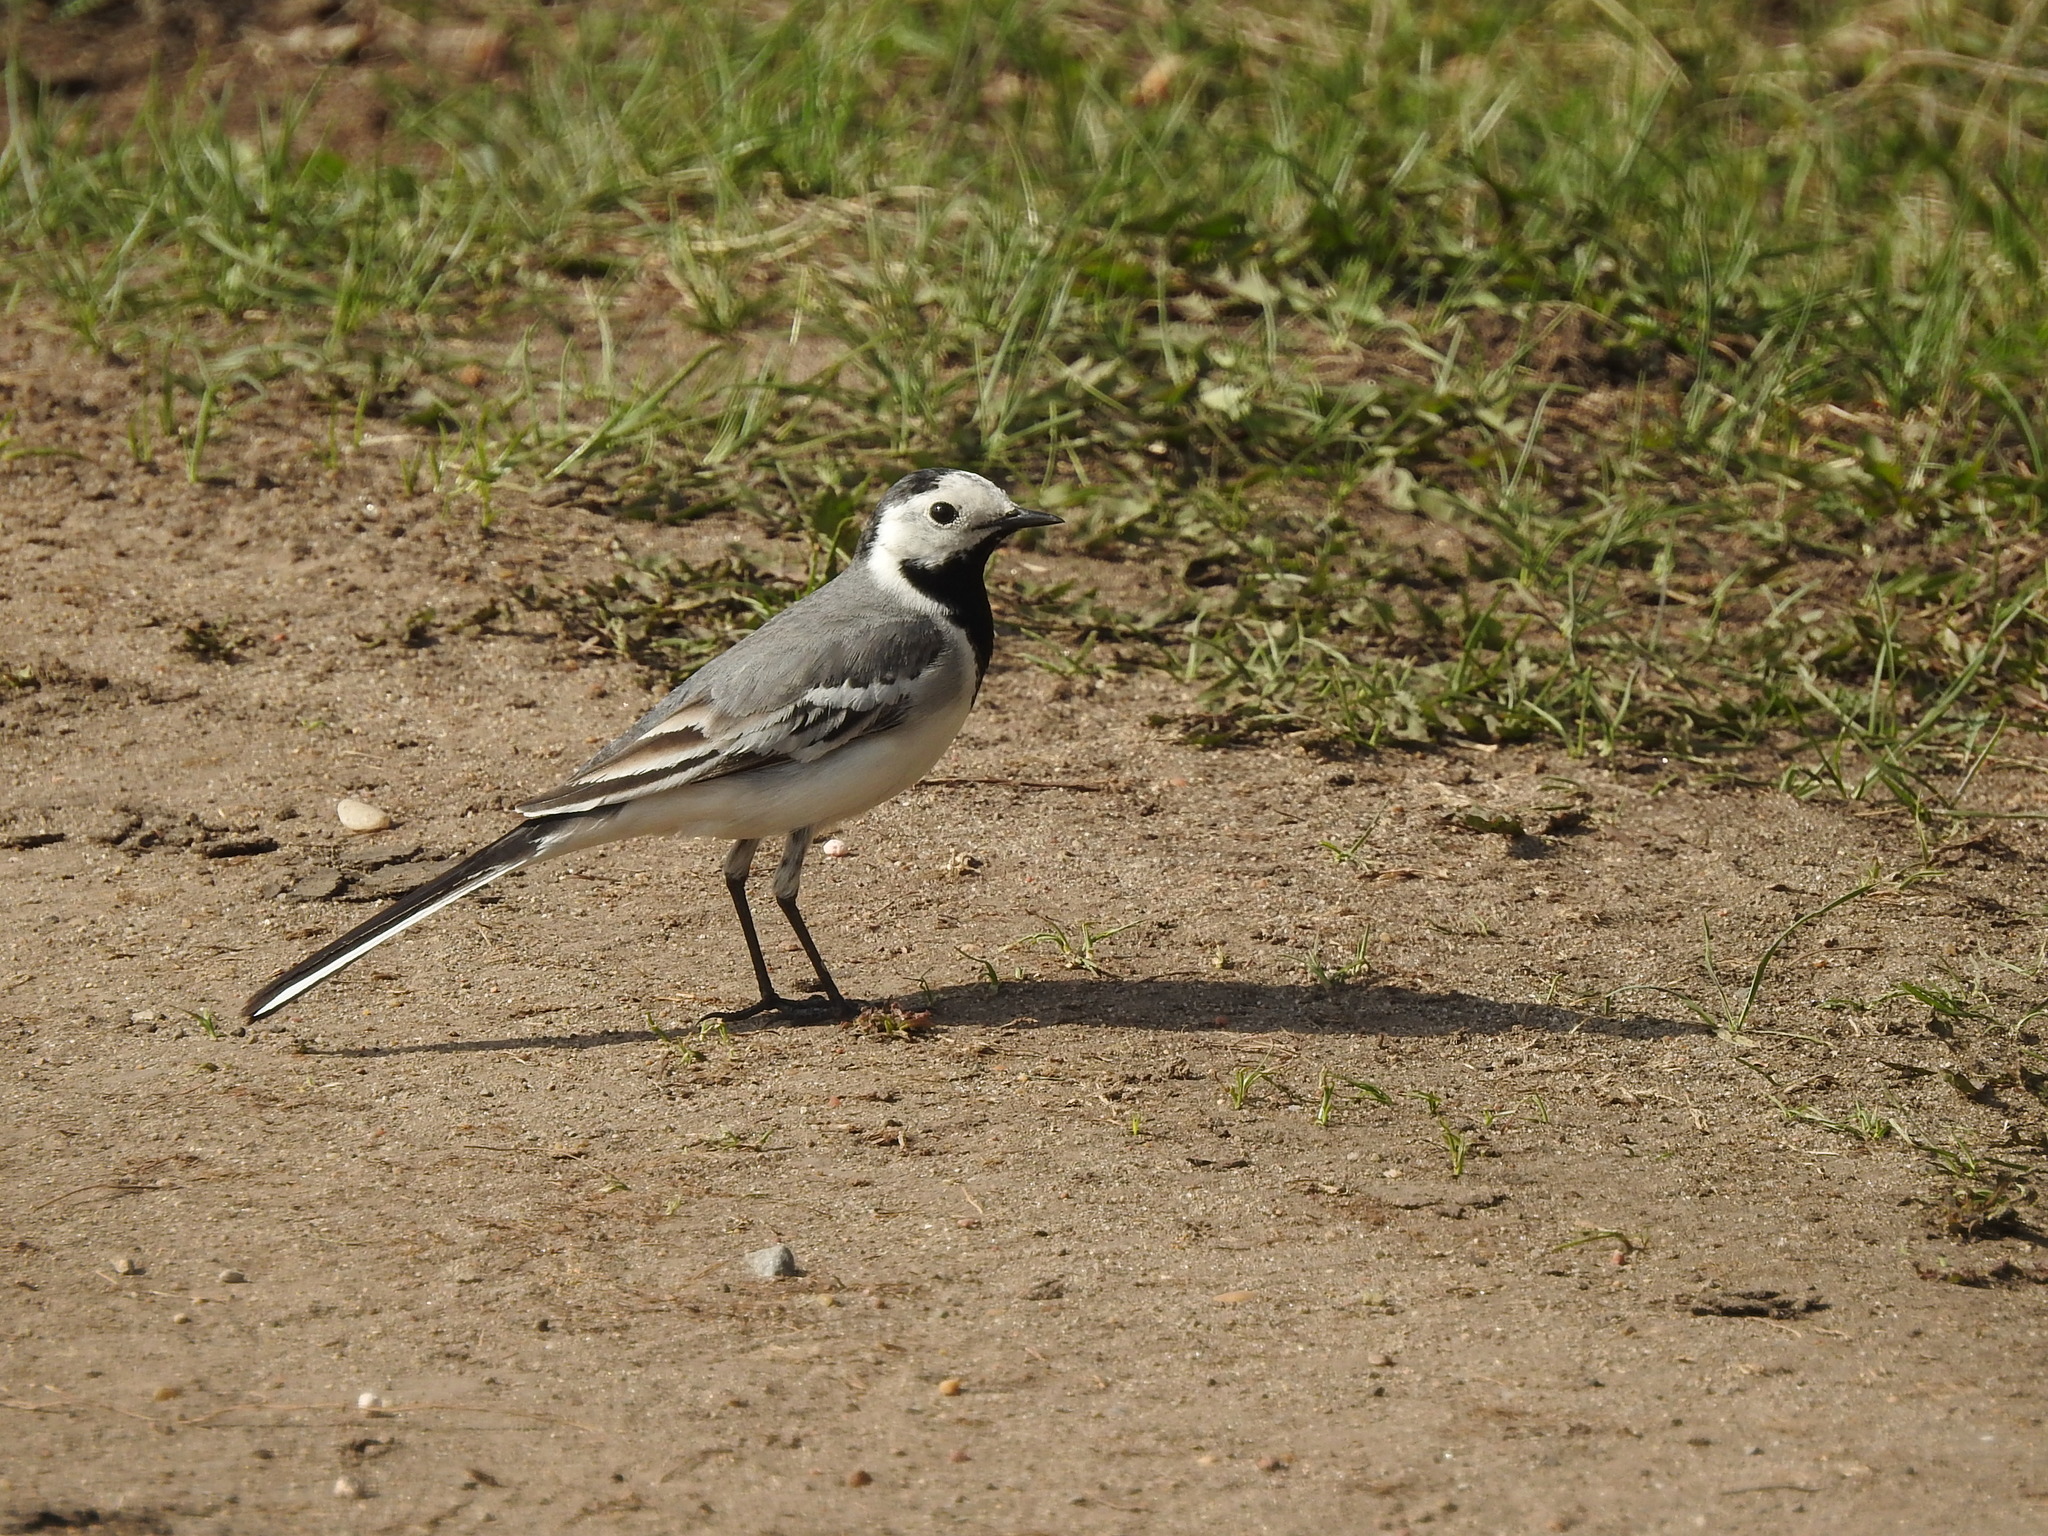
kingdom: Animalia
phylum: Chordata
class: Aves
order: Passeriformes
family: Motacillidae
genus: Motacilla
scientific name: Motacilla alba
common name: White wagtail
